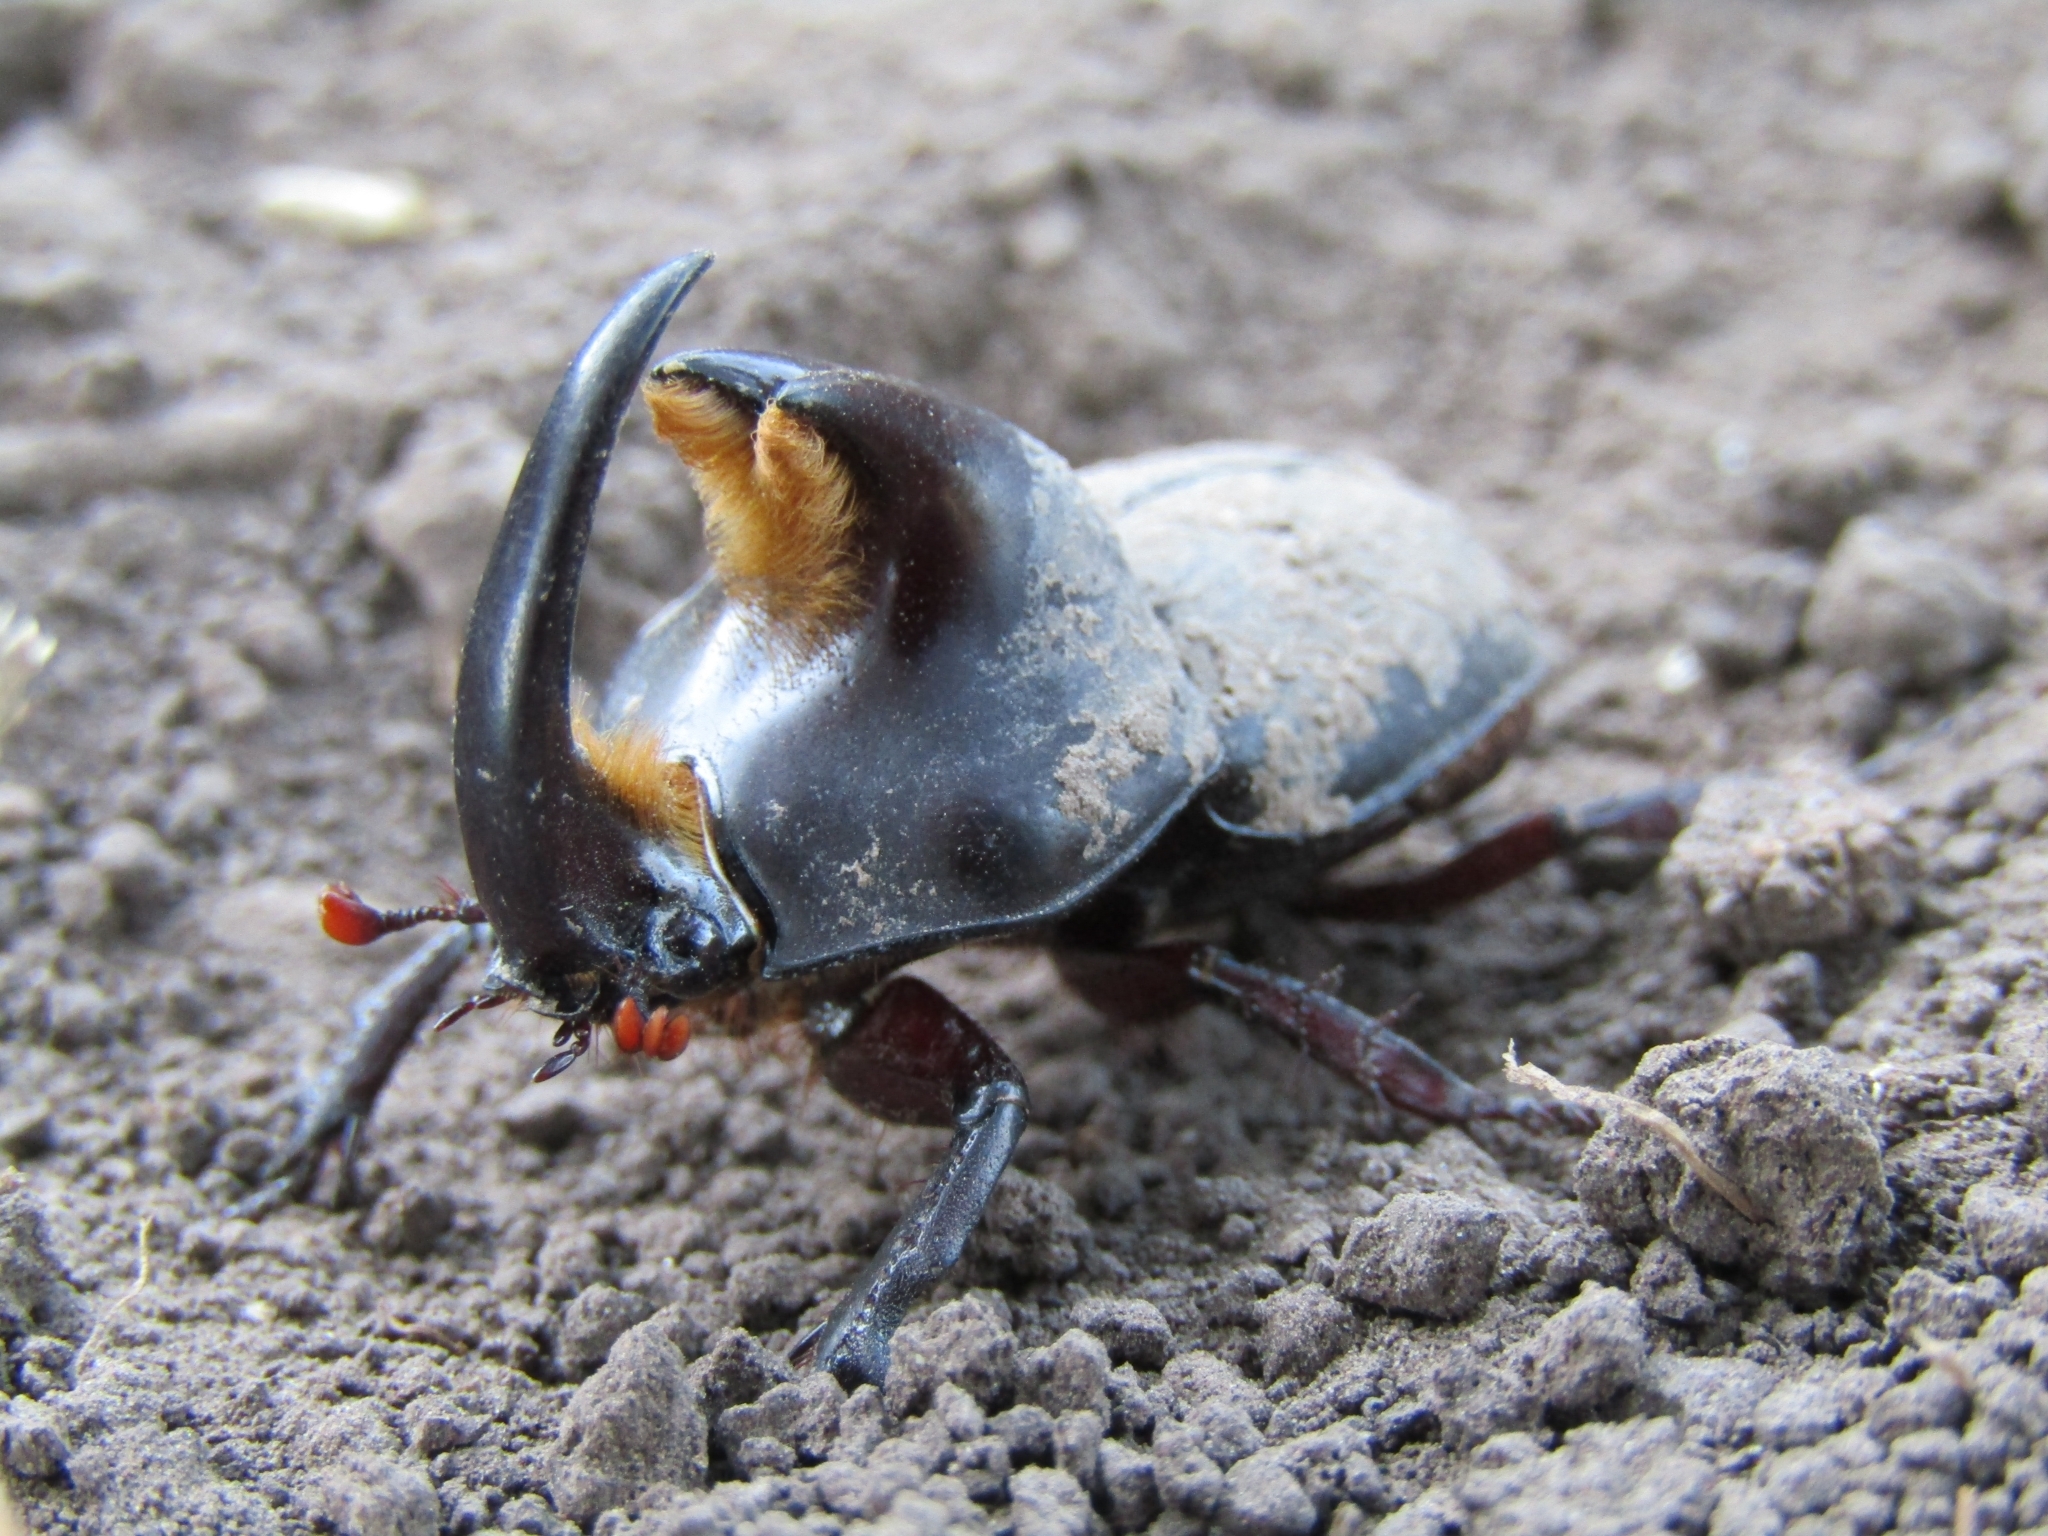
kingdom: Animalia
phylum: Arthropoda
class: Insecta
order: Coleoptera
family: Scarabaeidae
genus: Diloboderus
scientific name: Diloboderus abderus
